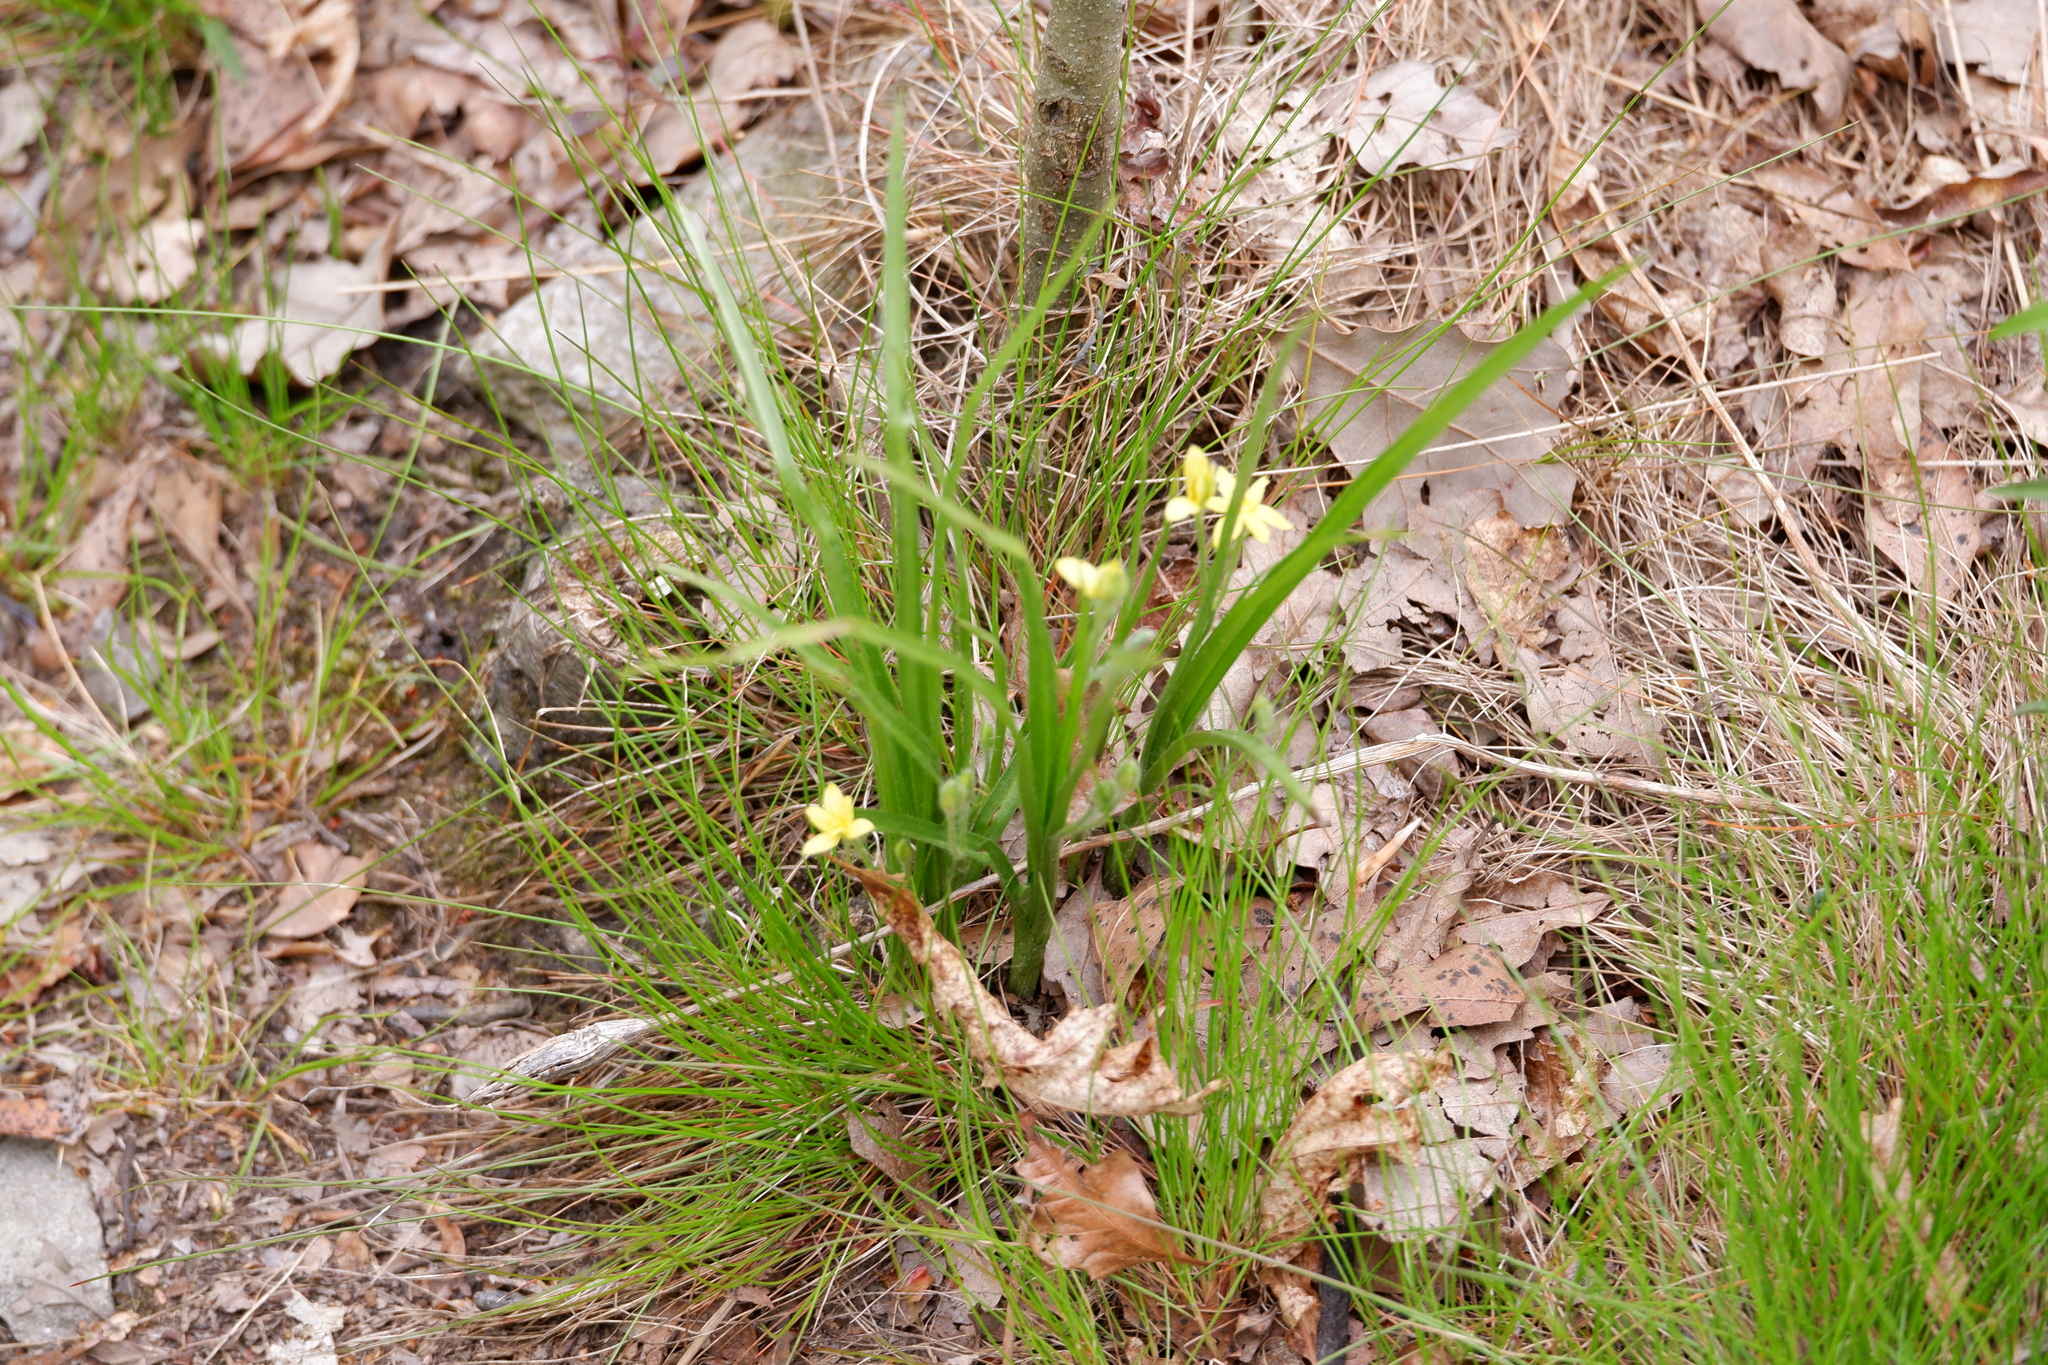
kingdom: Plantae
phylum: Tracheophyta
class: Liliopsida
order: Asparagales
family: Hypoxidaceae
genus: Hypoxis
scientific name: Hypoxis hirsuta
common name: Common goldstar
